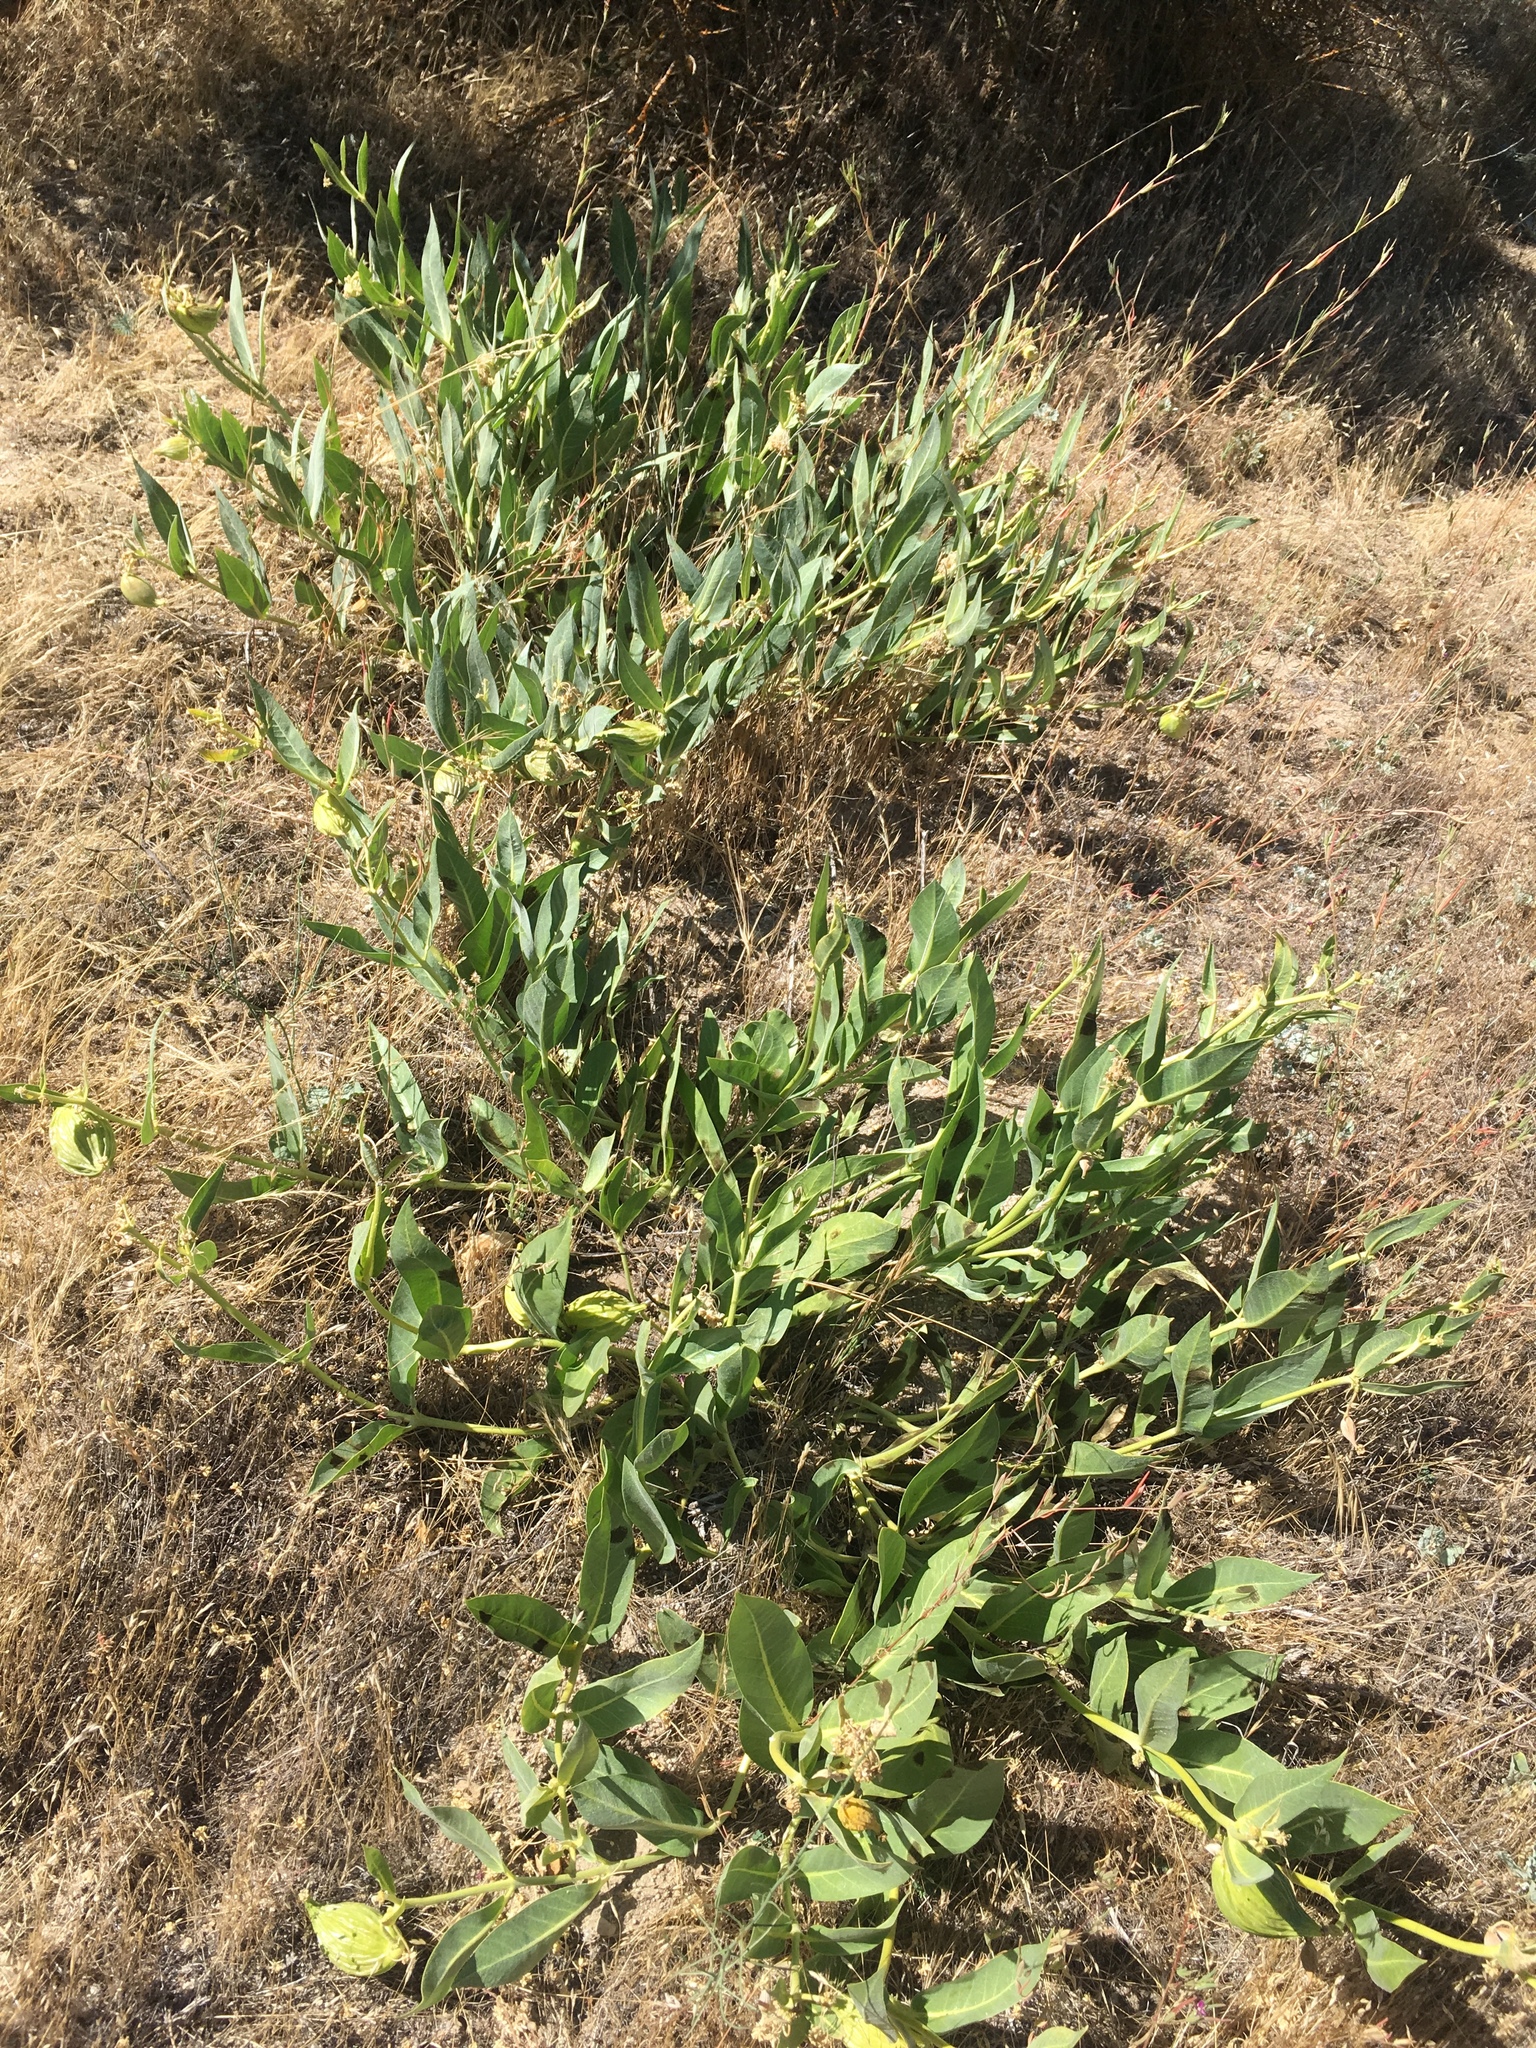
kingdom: Plantae
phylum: Tracheophyta
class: Magnoliopsida
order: Gentianales
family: Apocynaceae
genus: Asclepias
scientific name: Asclepias vestita
